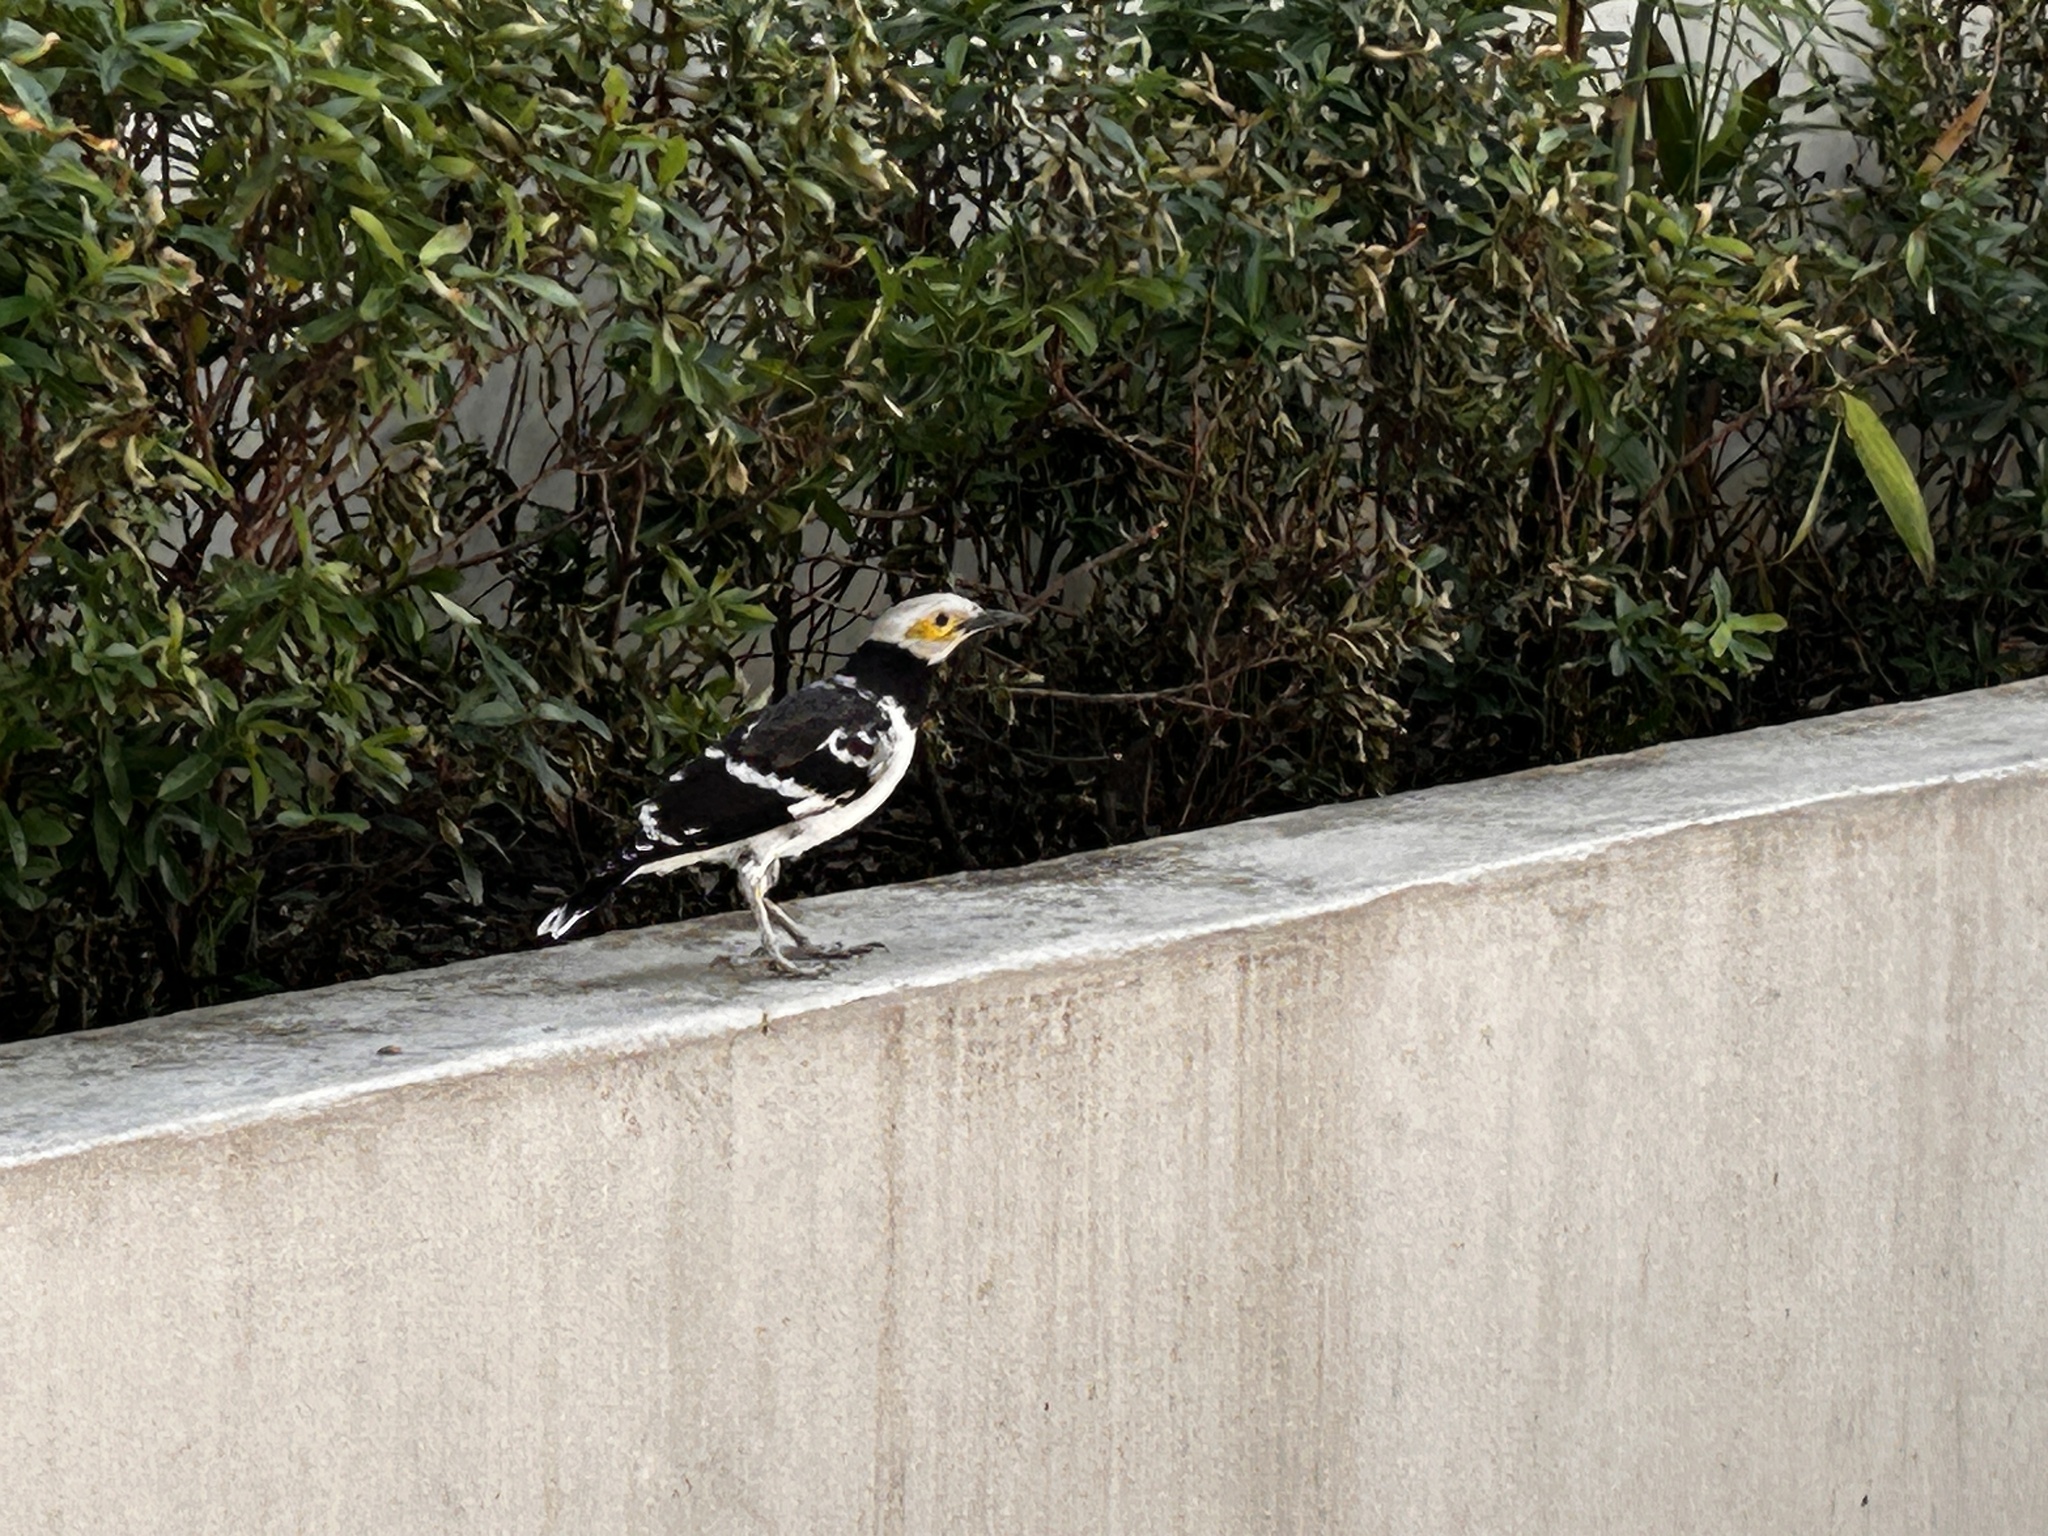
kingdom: Animalia
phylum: Chordata
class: Aves
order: Passeriformes
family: Sturnidae
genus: Gracupica
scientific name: Gracupica nigricollis
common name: Black-collared starling
